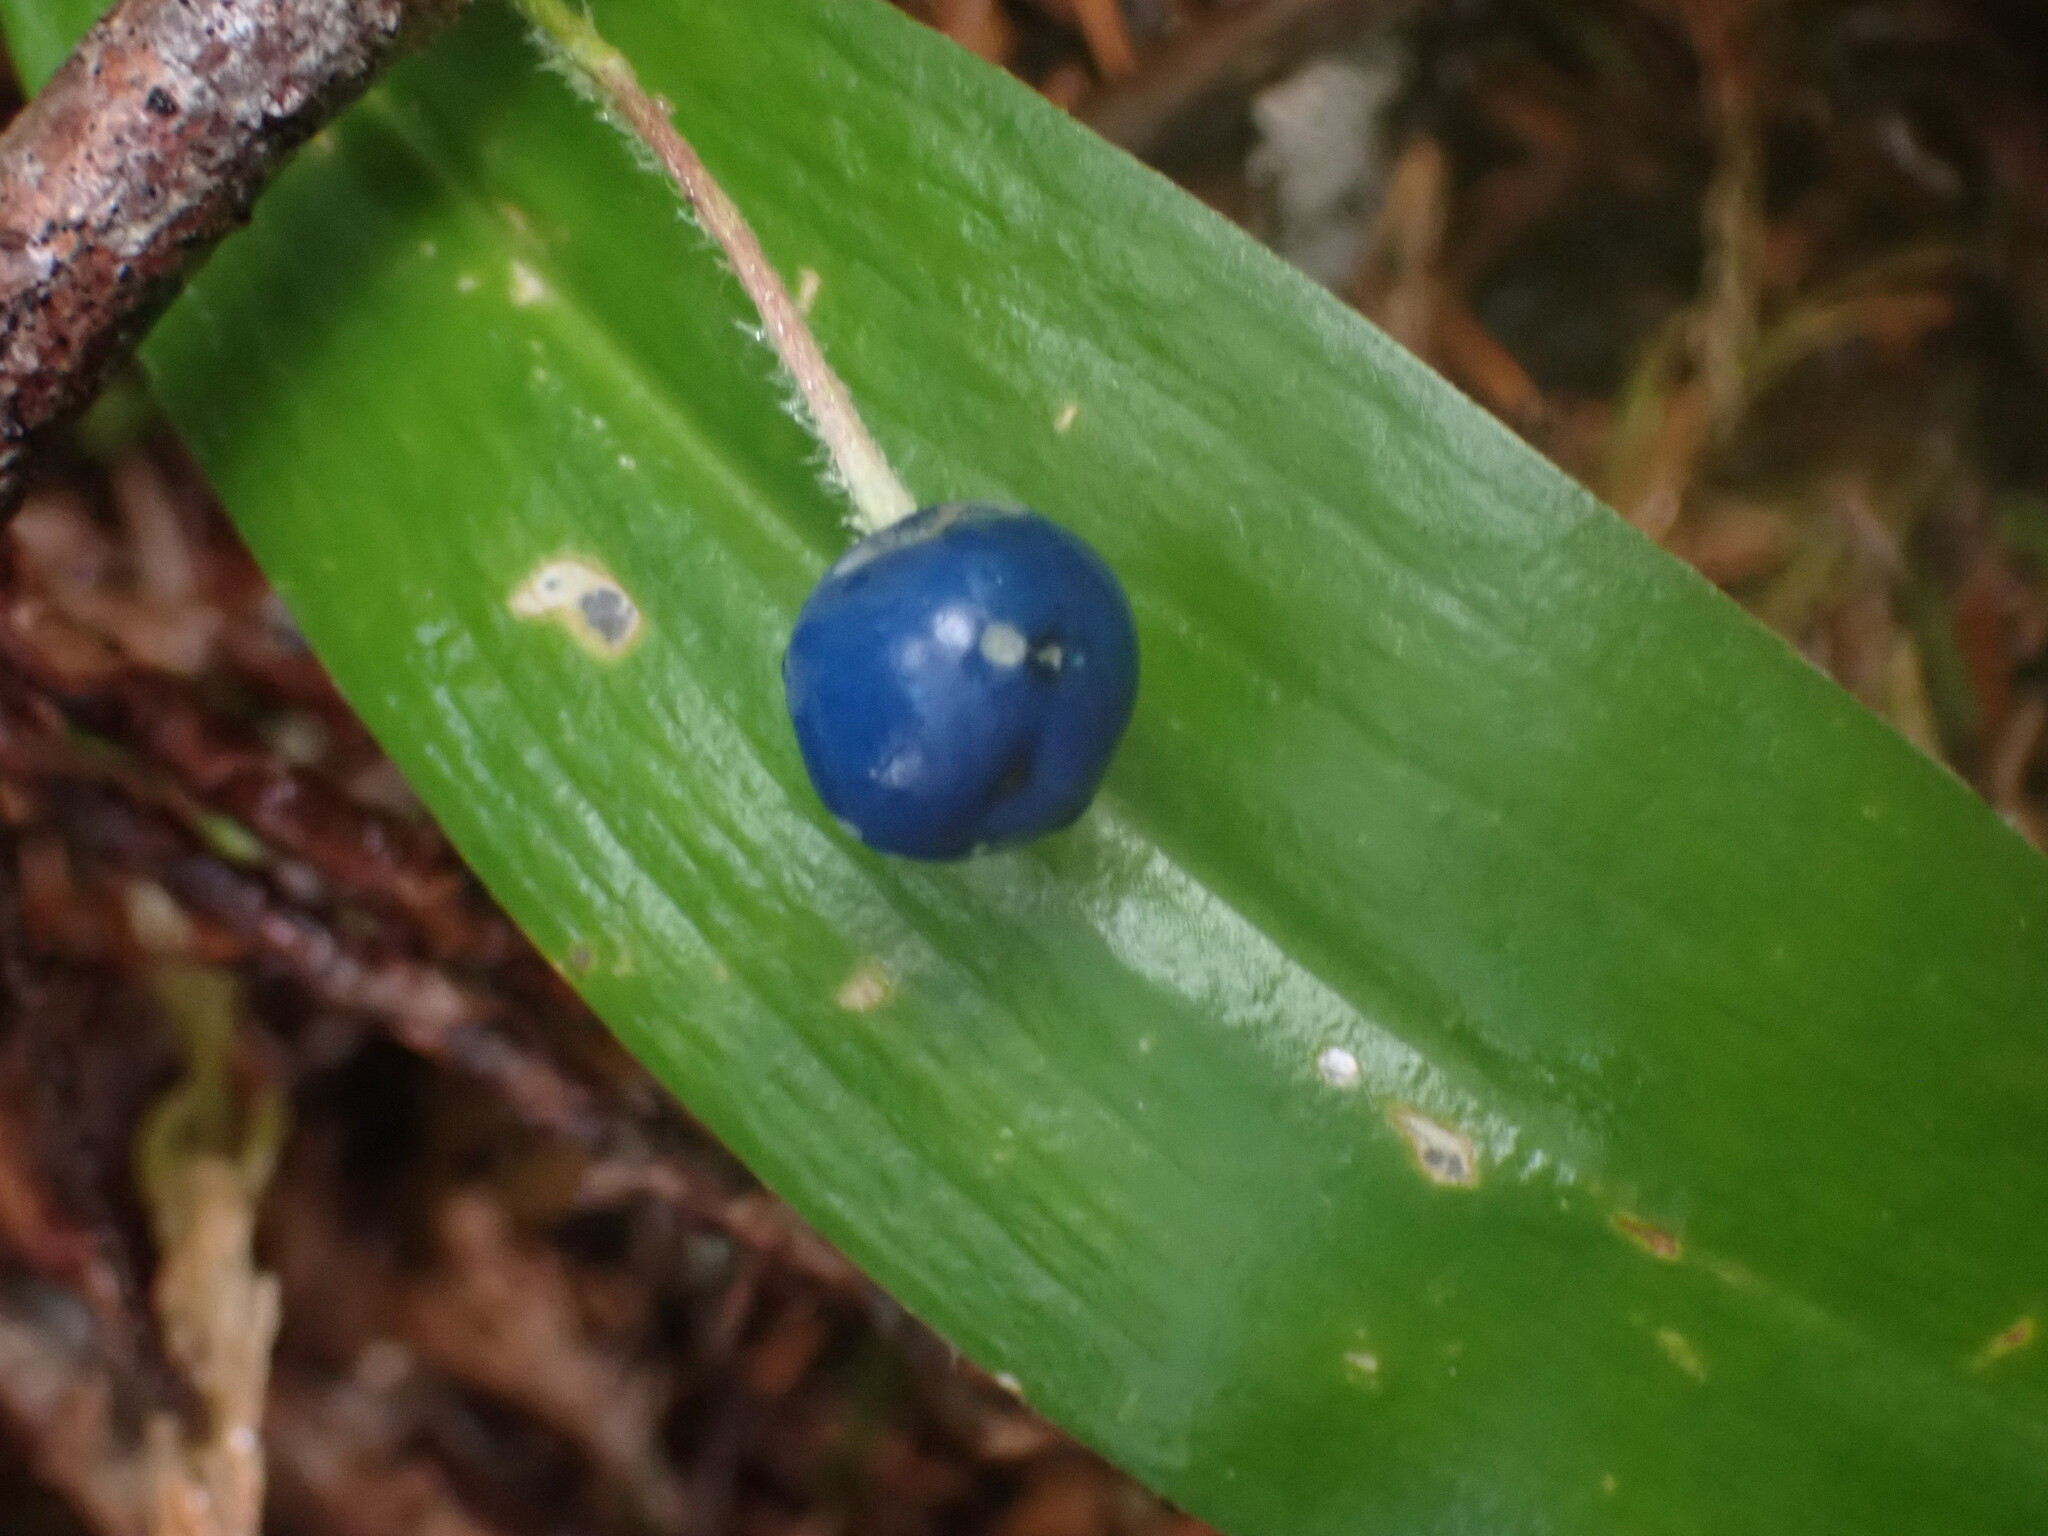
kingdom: Plantae
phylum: Tracheophyta
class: Liliopsida
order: Liliales
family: Liliaceae
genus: Clintonia
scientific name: Clintonia uniflora
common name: Queen's cup
